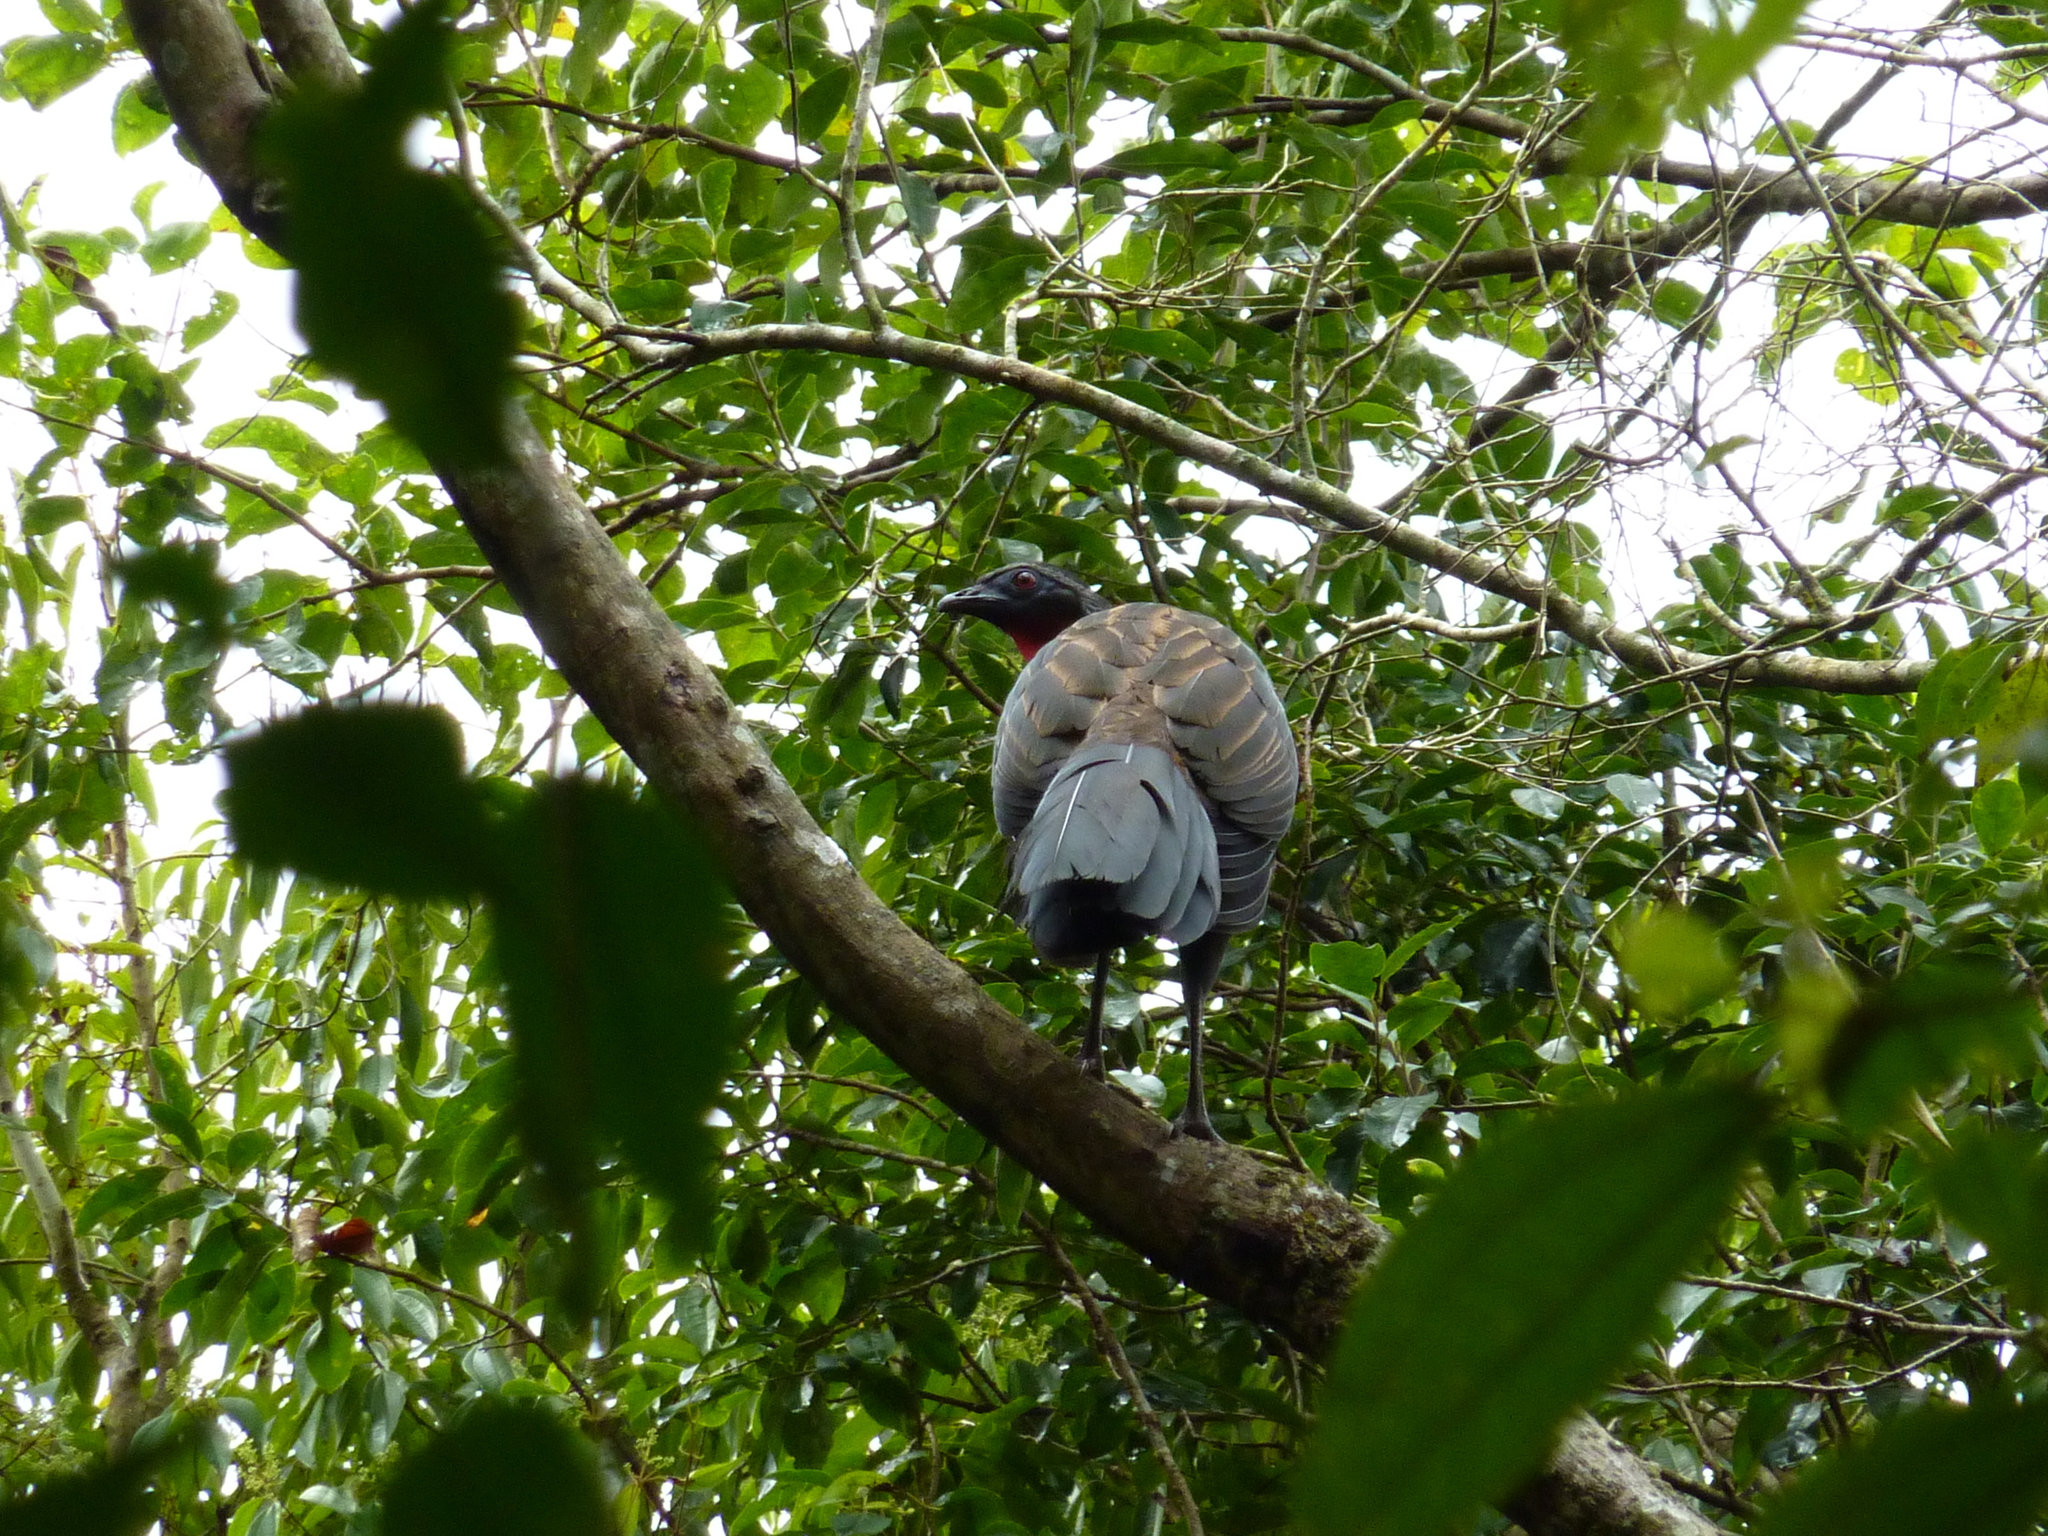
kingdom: Animalia
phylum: Chordata
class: Aves
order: Galliformes
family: Cracidae
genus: Penelope
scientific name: Penelope superciliaris
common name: Rusty-margined guan
